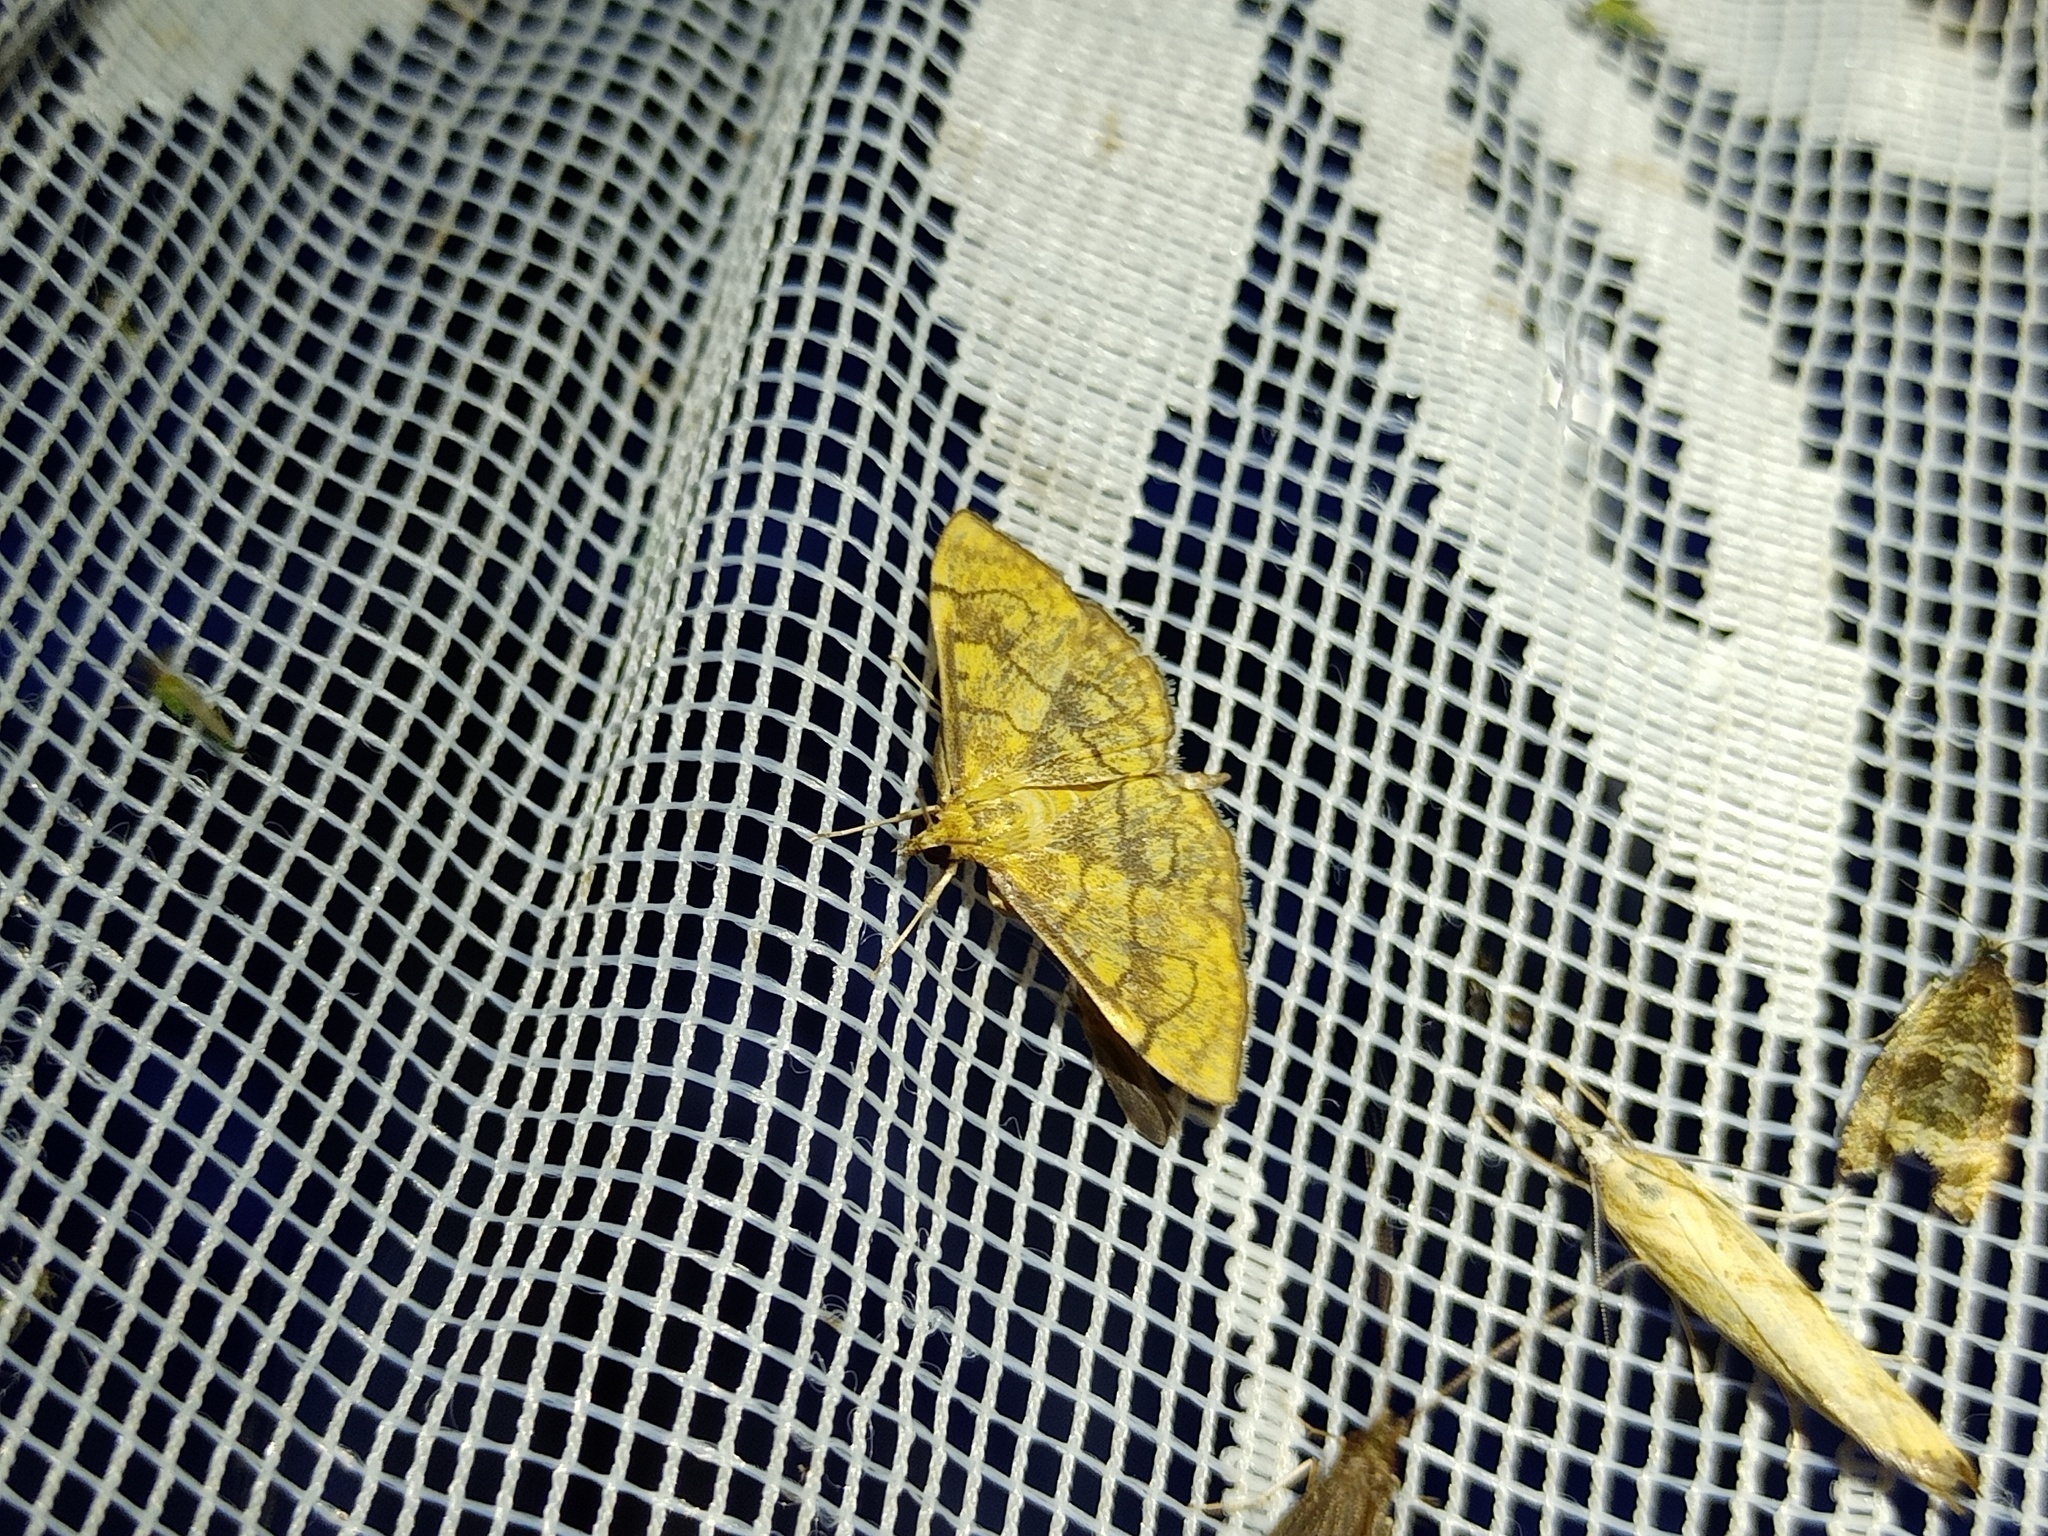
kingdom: Animalia
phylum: Arthropoda
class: Insecta
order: Lepidoptera
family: Crambidae
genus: Anania
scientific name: Anania verbascalis
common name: Golden pearl
